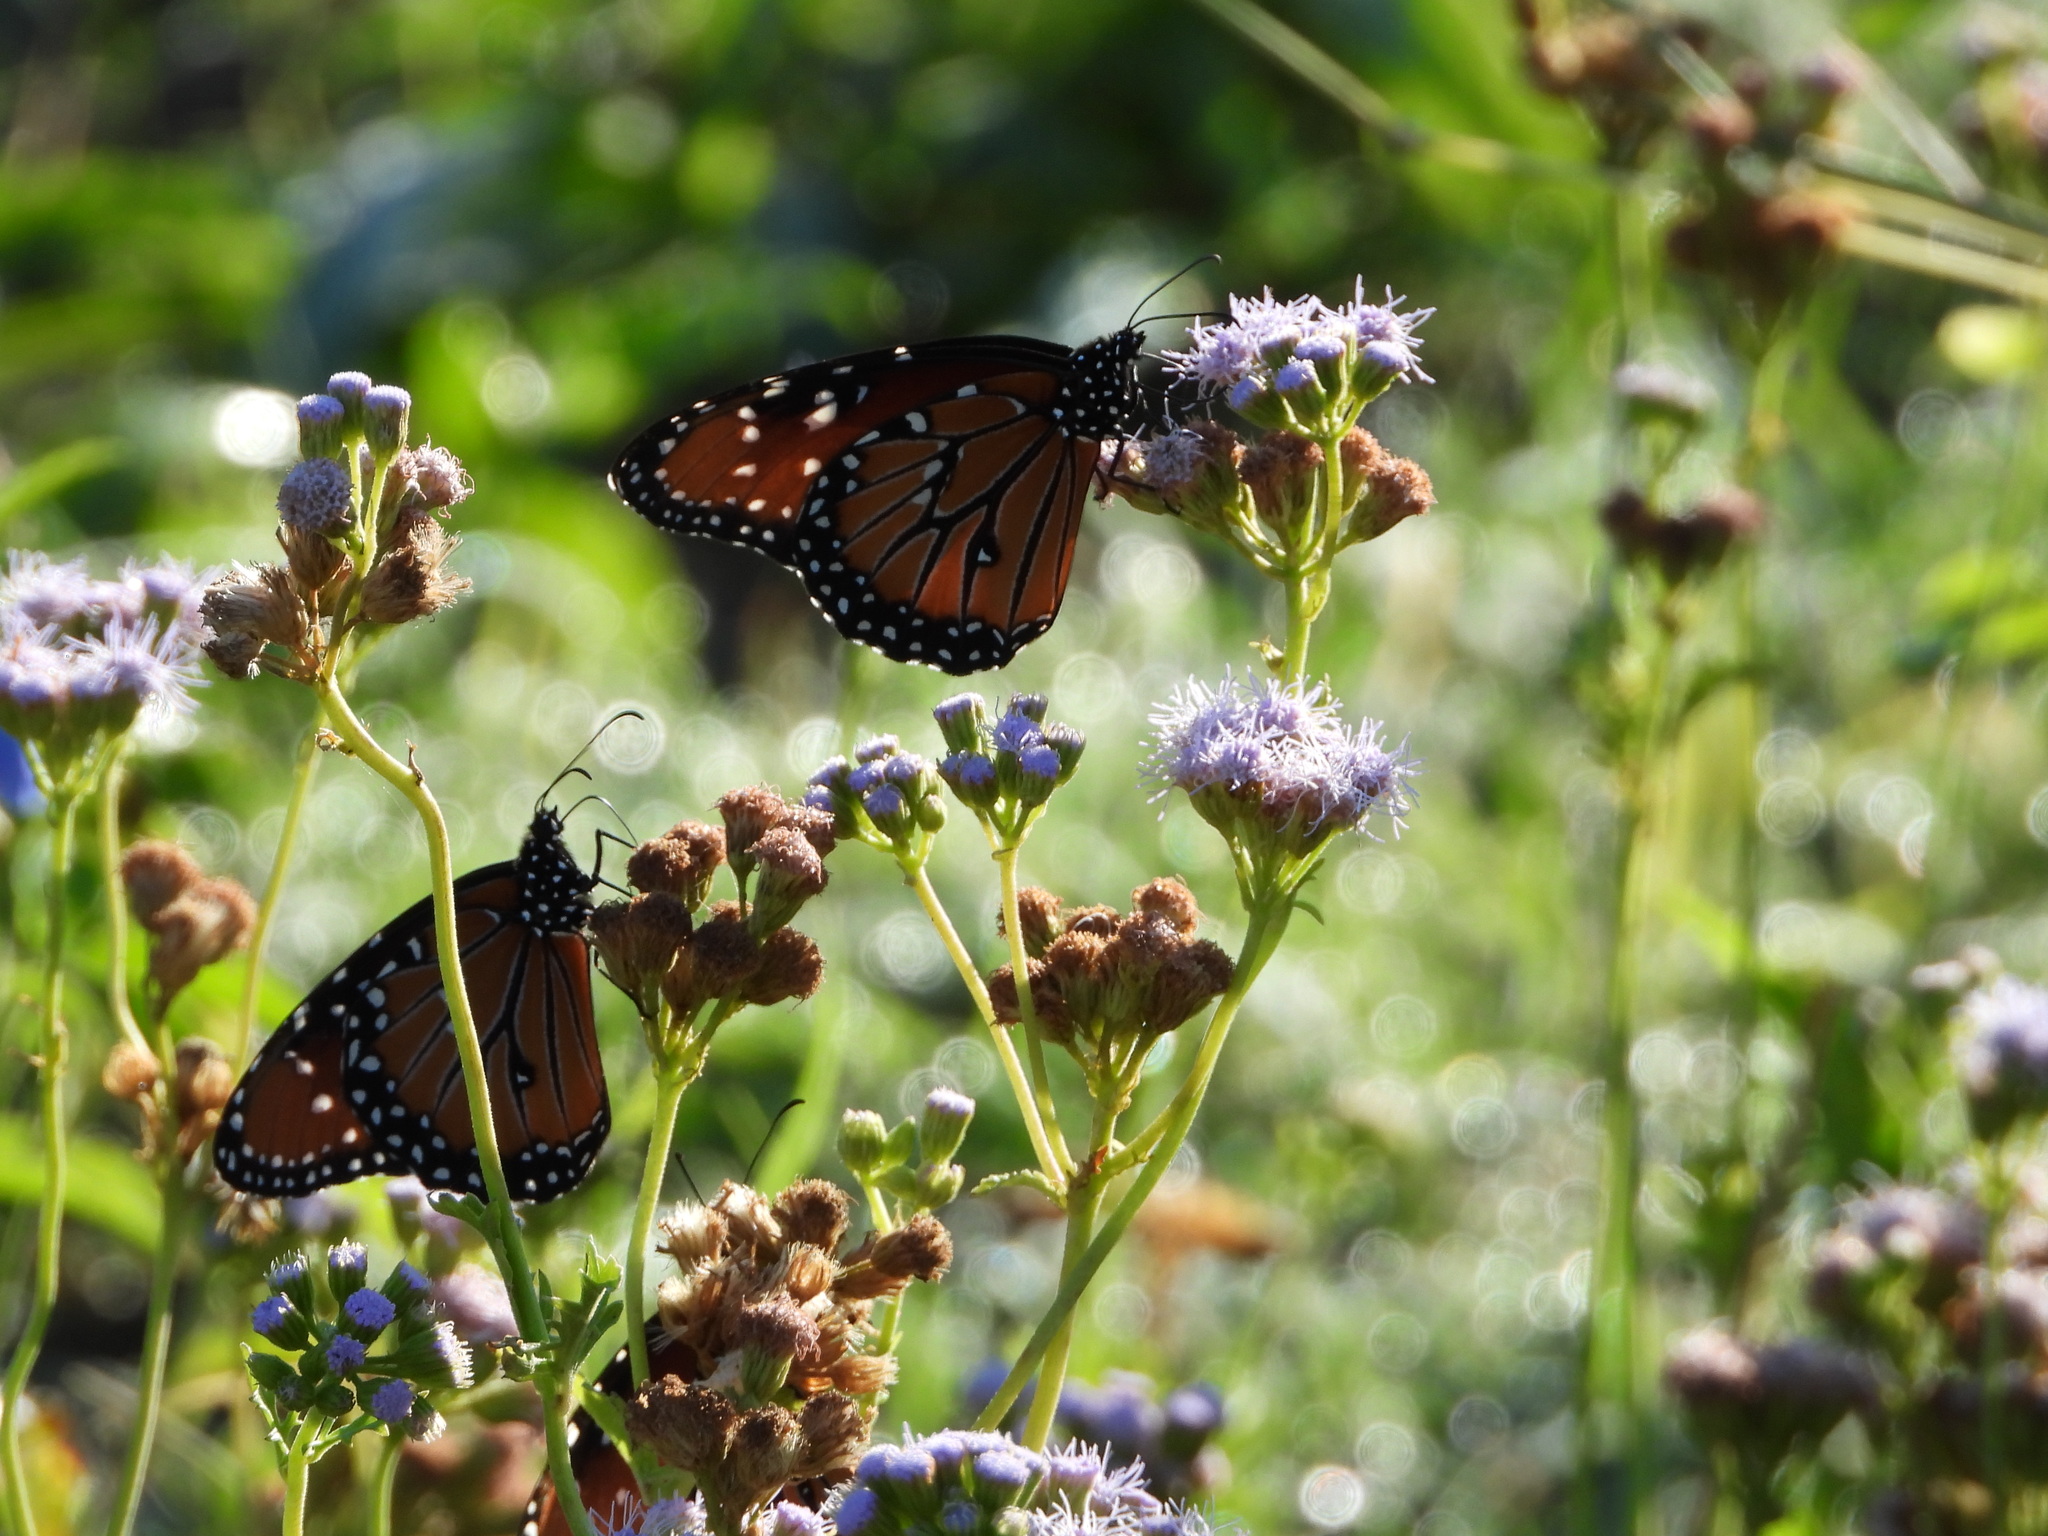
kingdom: Animalia
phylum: Arthropoda
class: Insecta
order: Lepidoptera
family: Nymphalidae
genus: Danaus
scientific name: Danaus gilippus
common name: Queen
